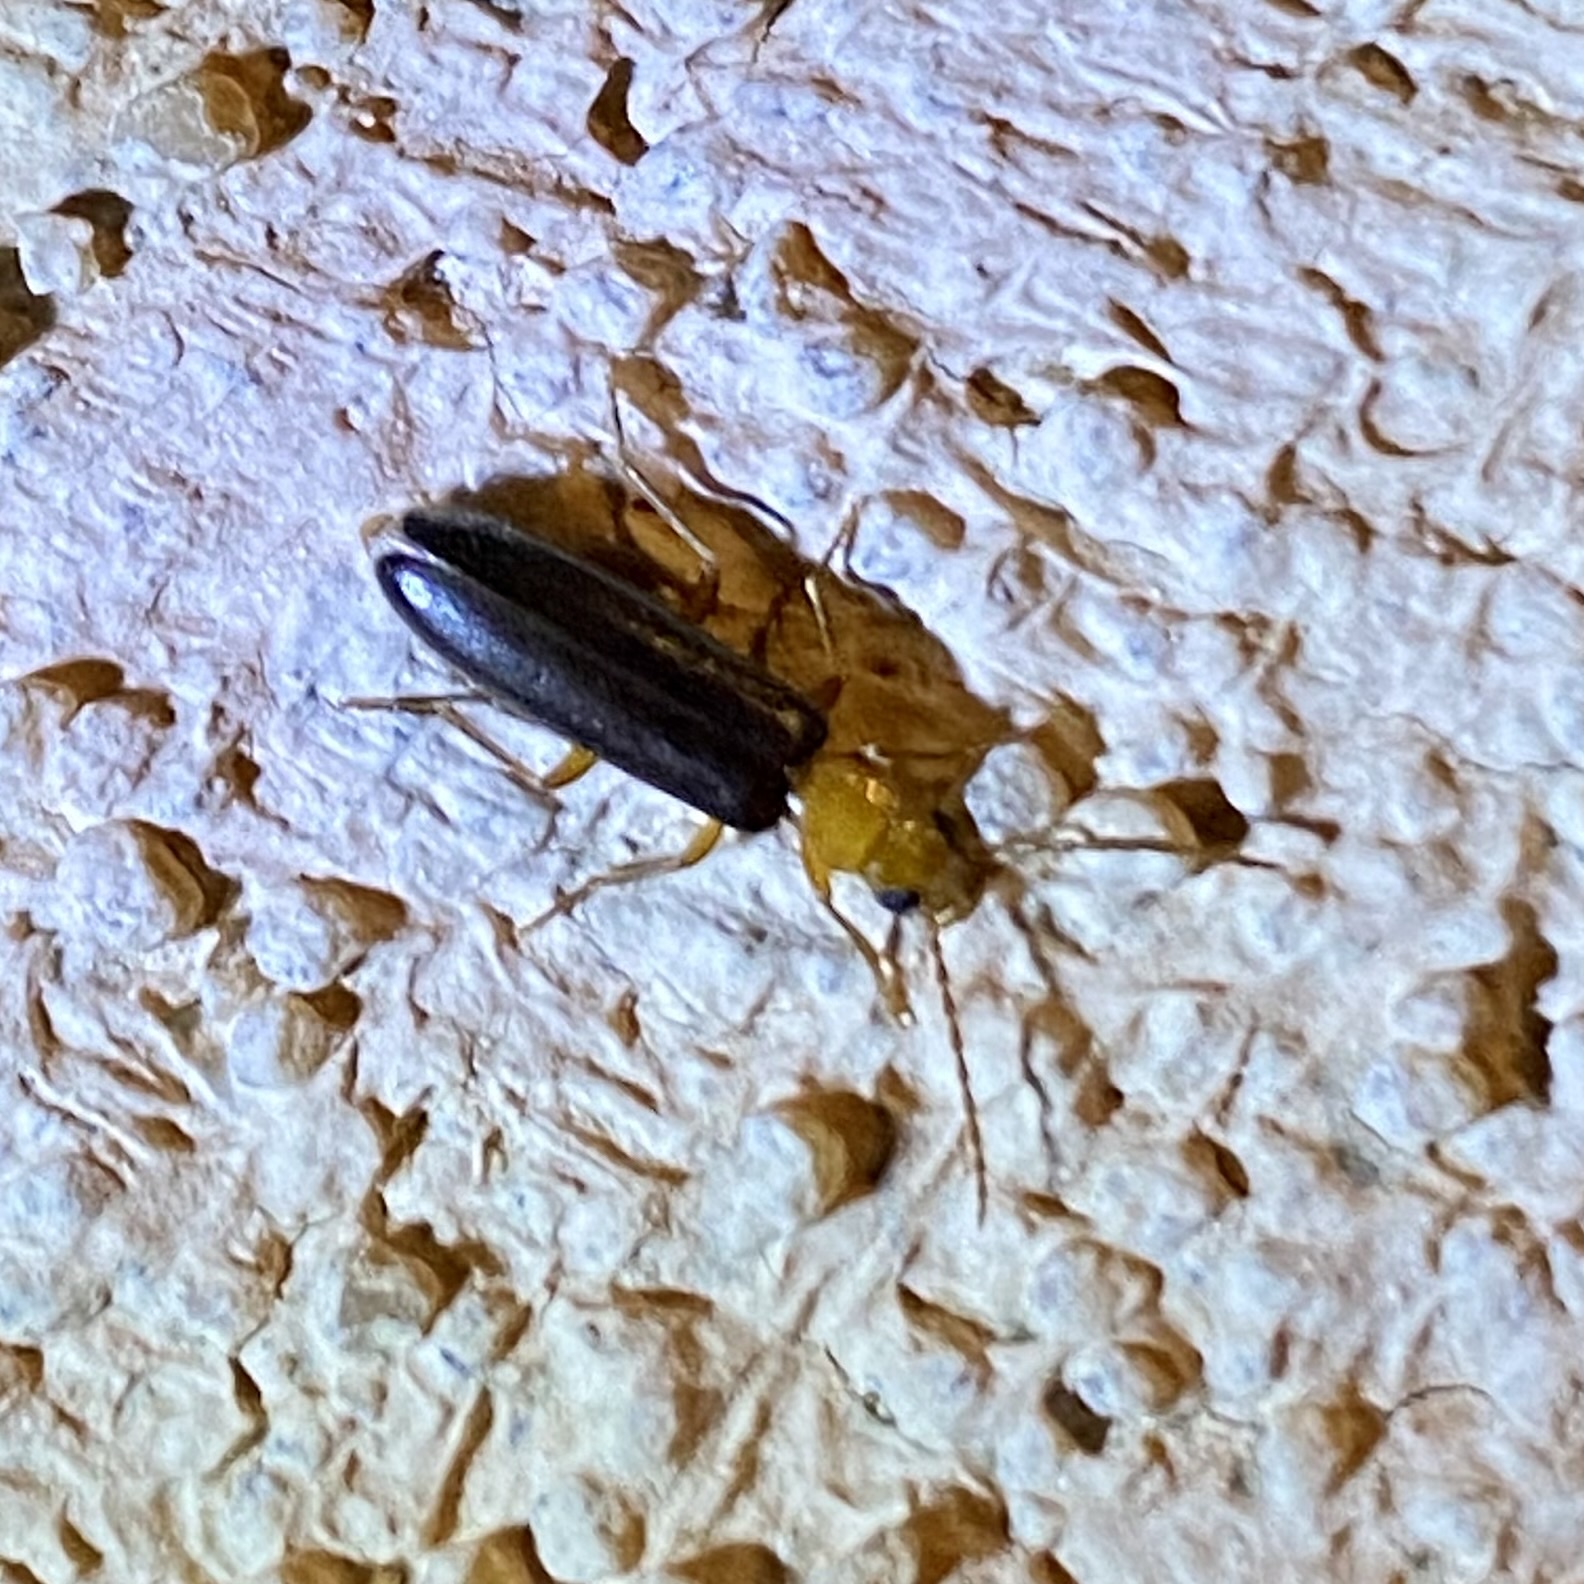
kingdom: Animalia
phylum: Arthropoda
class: Insecta
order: Coleoptera
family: Oedemeridae
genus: Xanthochroina
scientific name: Xanthochroina bicolor
